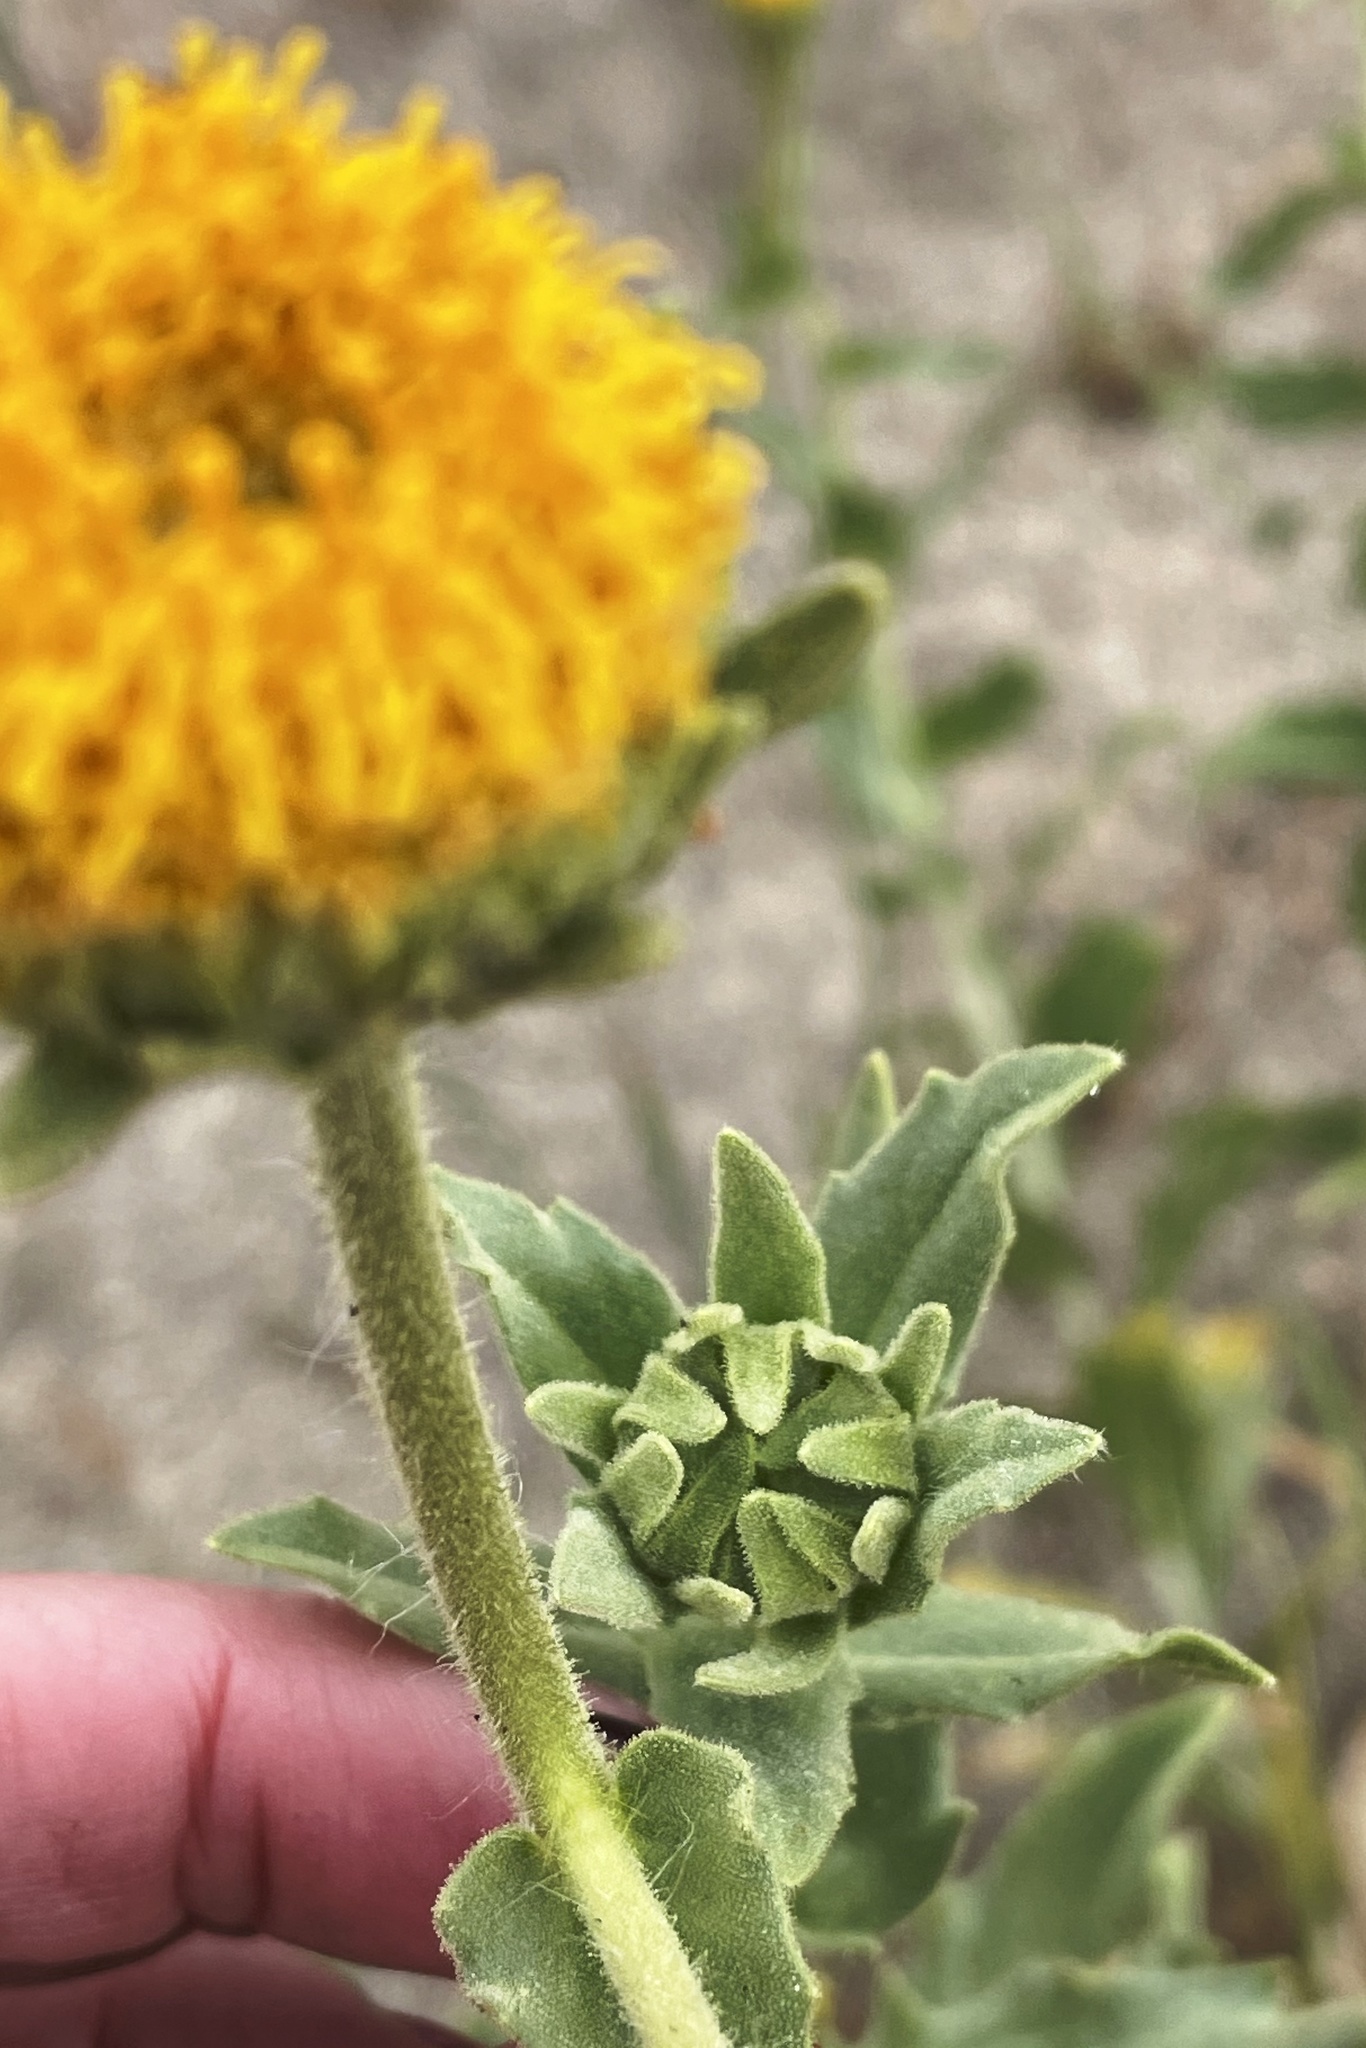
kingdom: Plantae
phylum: Tracheophyta
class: Magnoliopsida
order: Asterales
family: Asteraceae
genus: Geraea
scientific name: Geraea viscida
